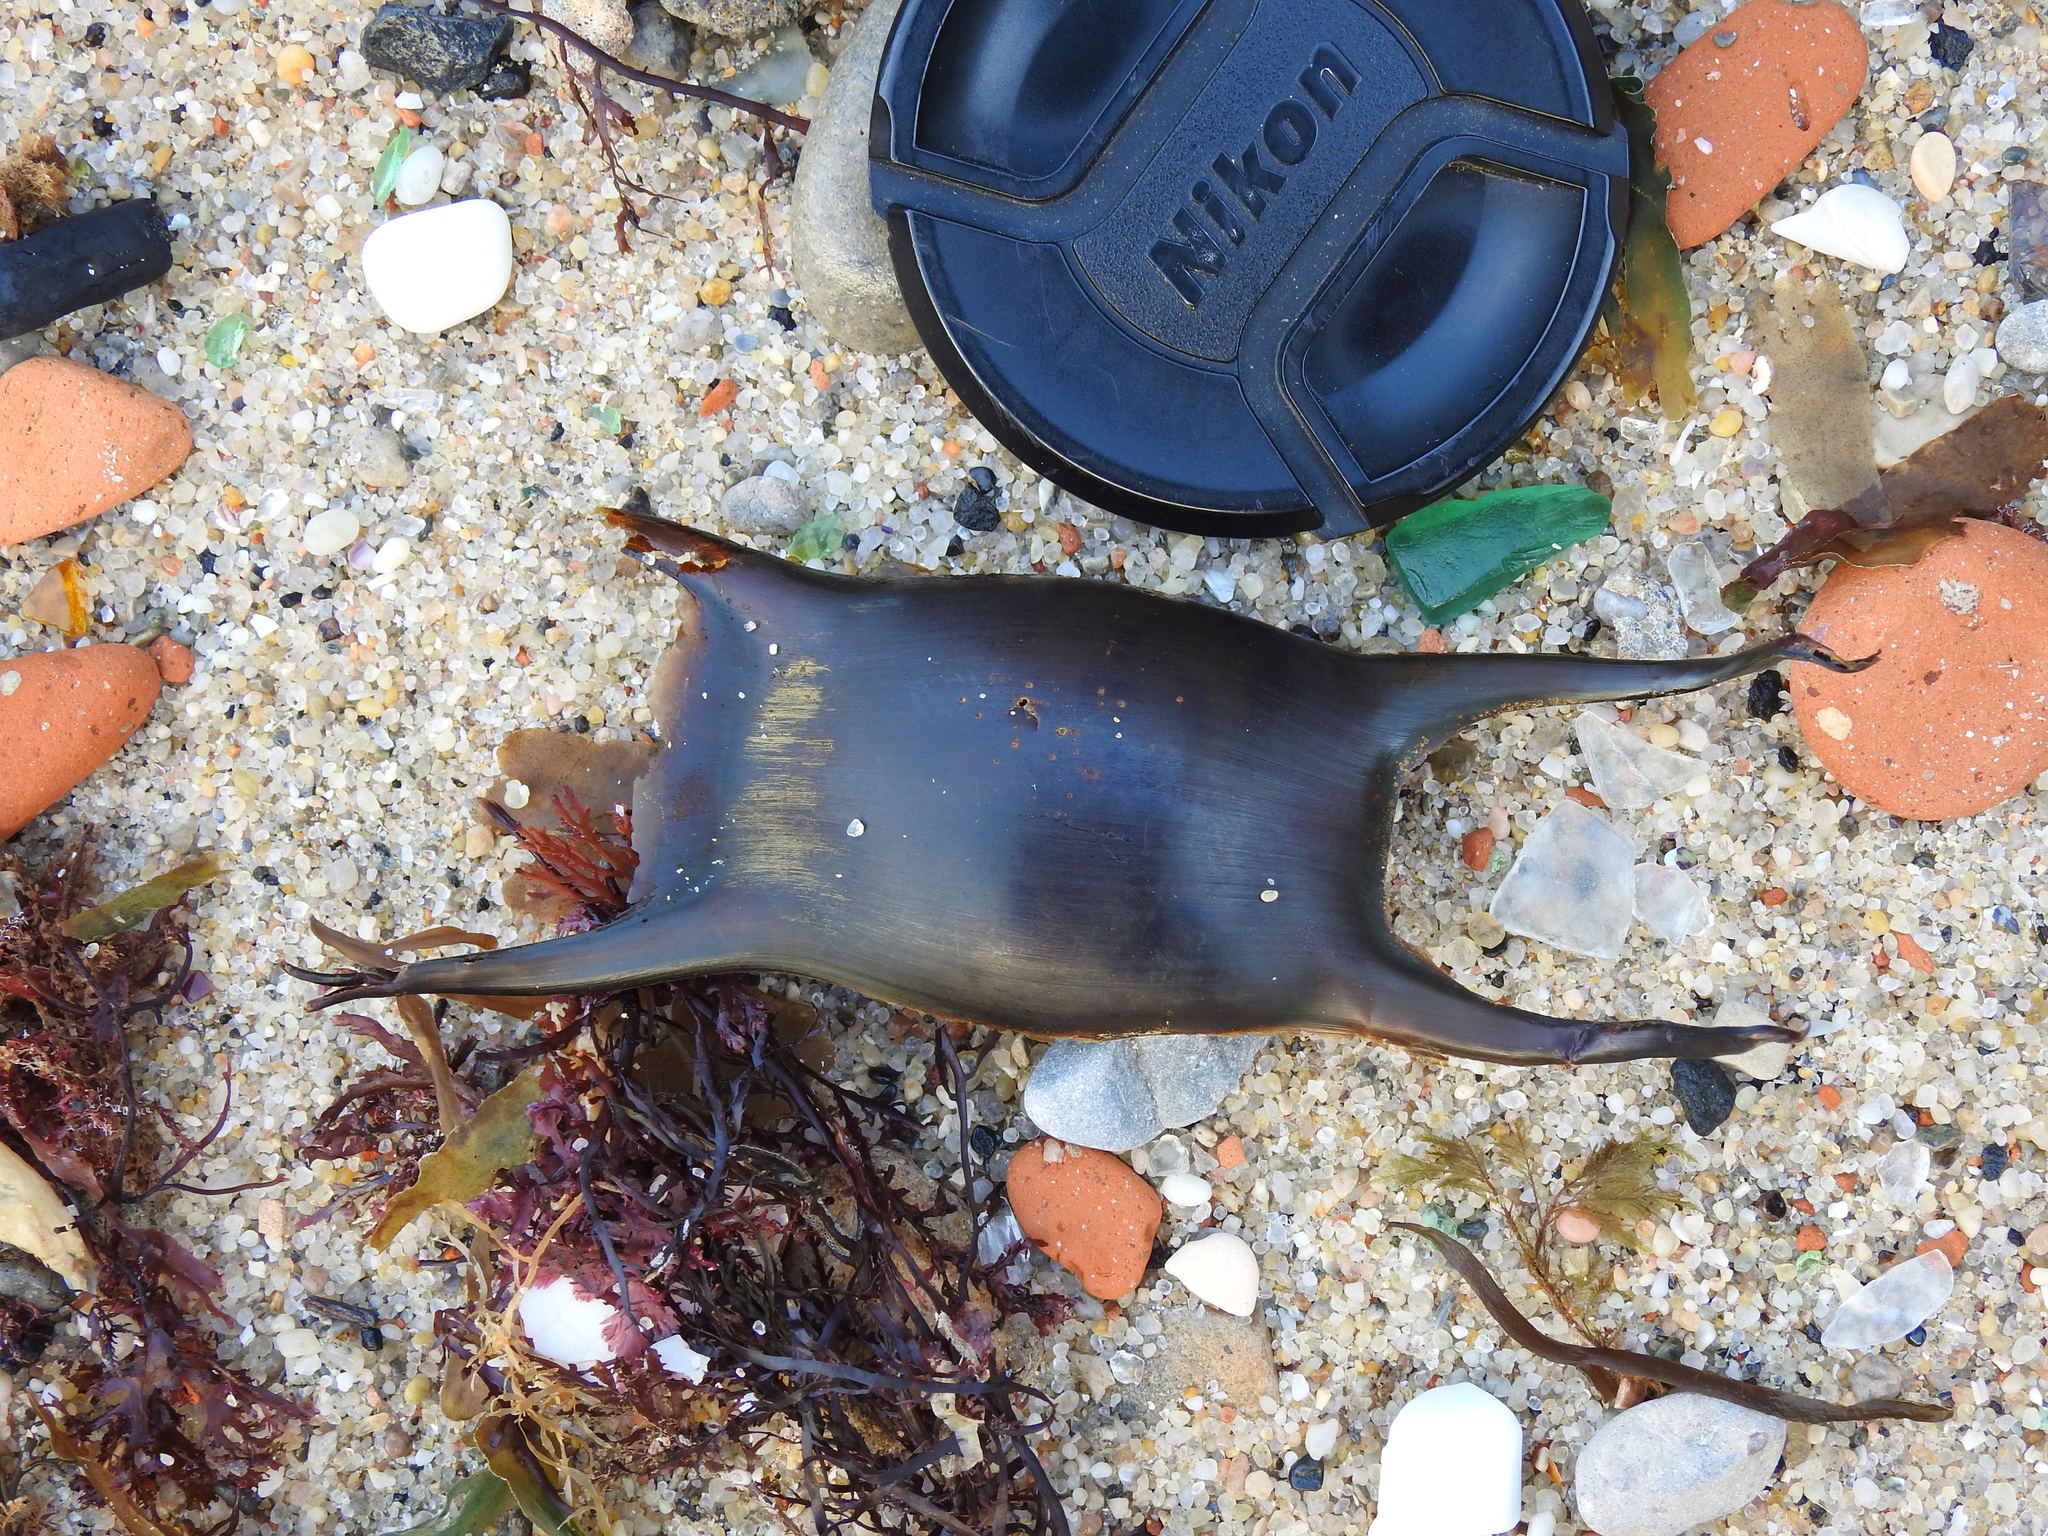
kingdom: Animalia
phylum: Chordata
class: Elasmobranchii
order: Rajiformes
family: Rajidae
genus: Raja
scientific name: Raja montagui
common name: Spotted ray
